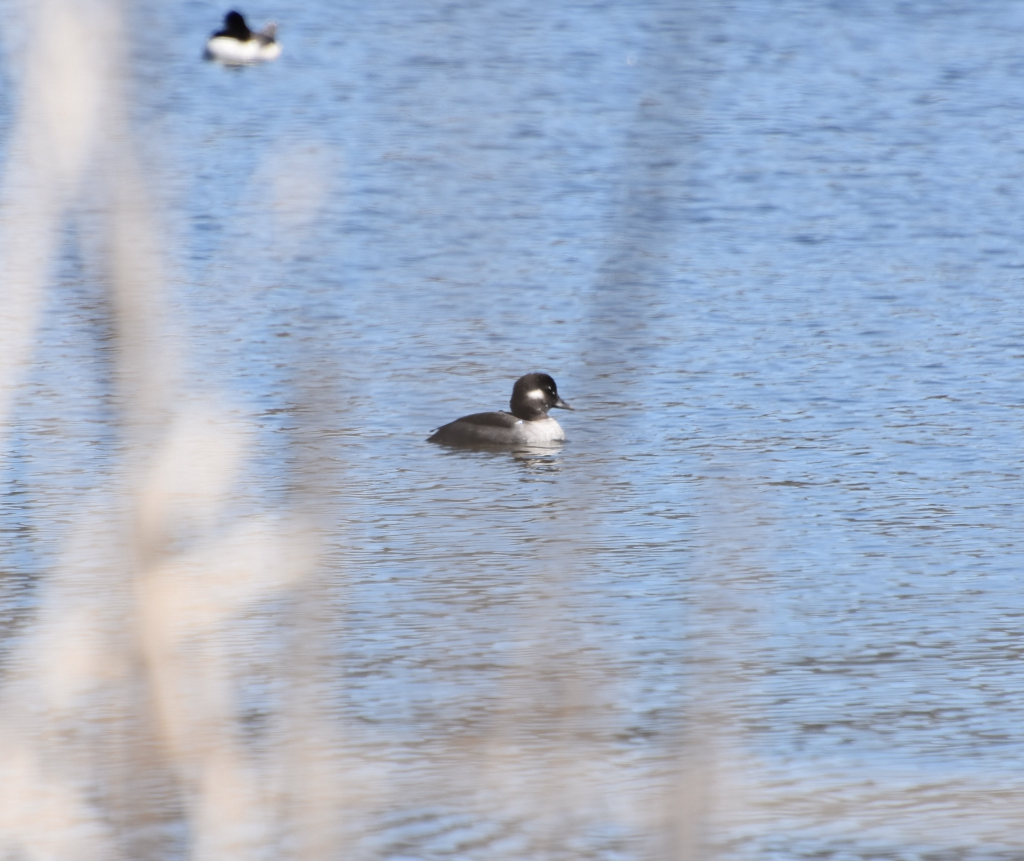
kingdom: Animalia
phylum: Chordata
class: Aves
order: Anseriformes
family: Anatidae
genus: Bucephala
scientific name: Bucephala albeola
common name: Bufflehead
